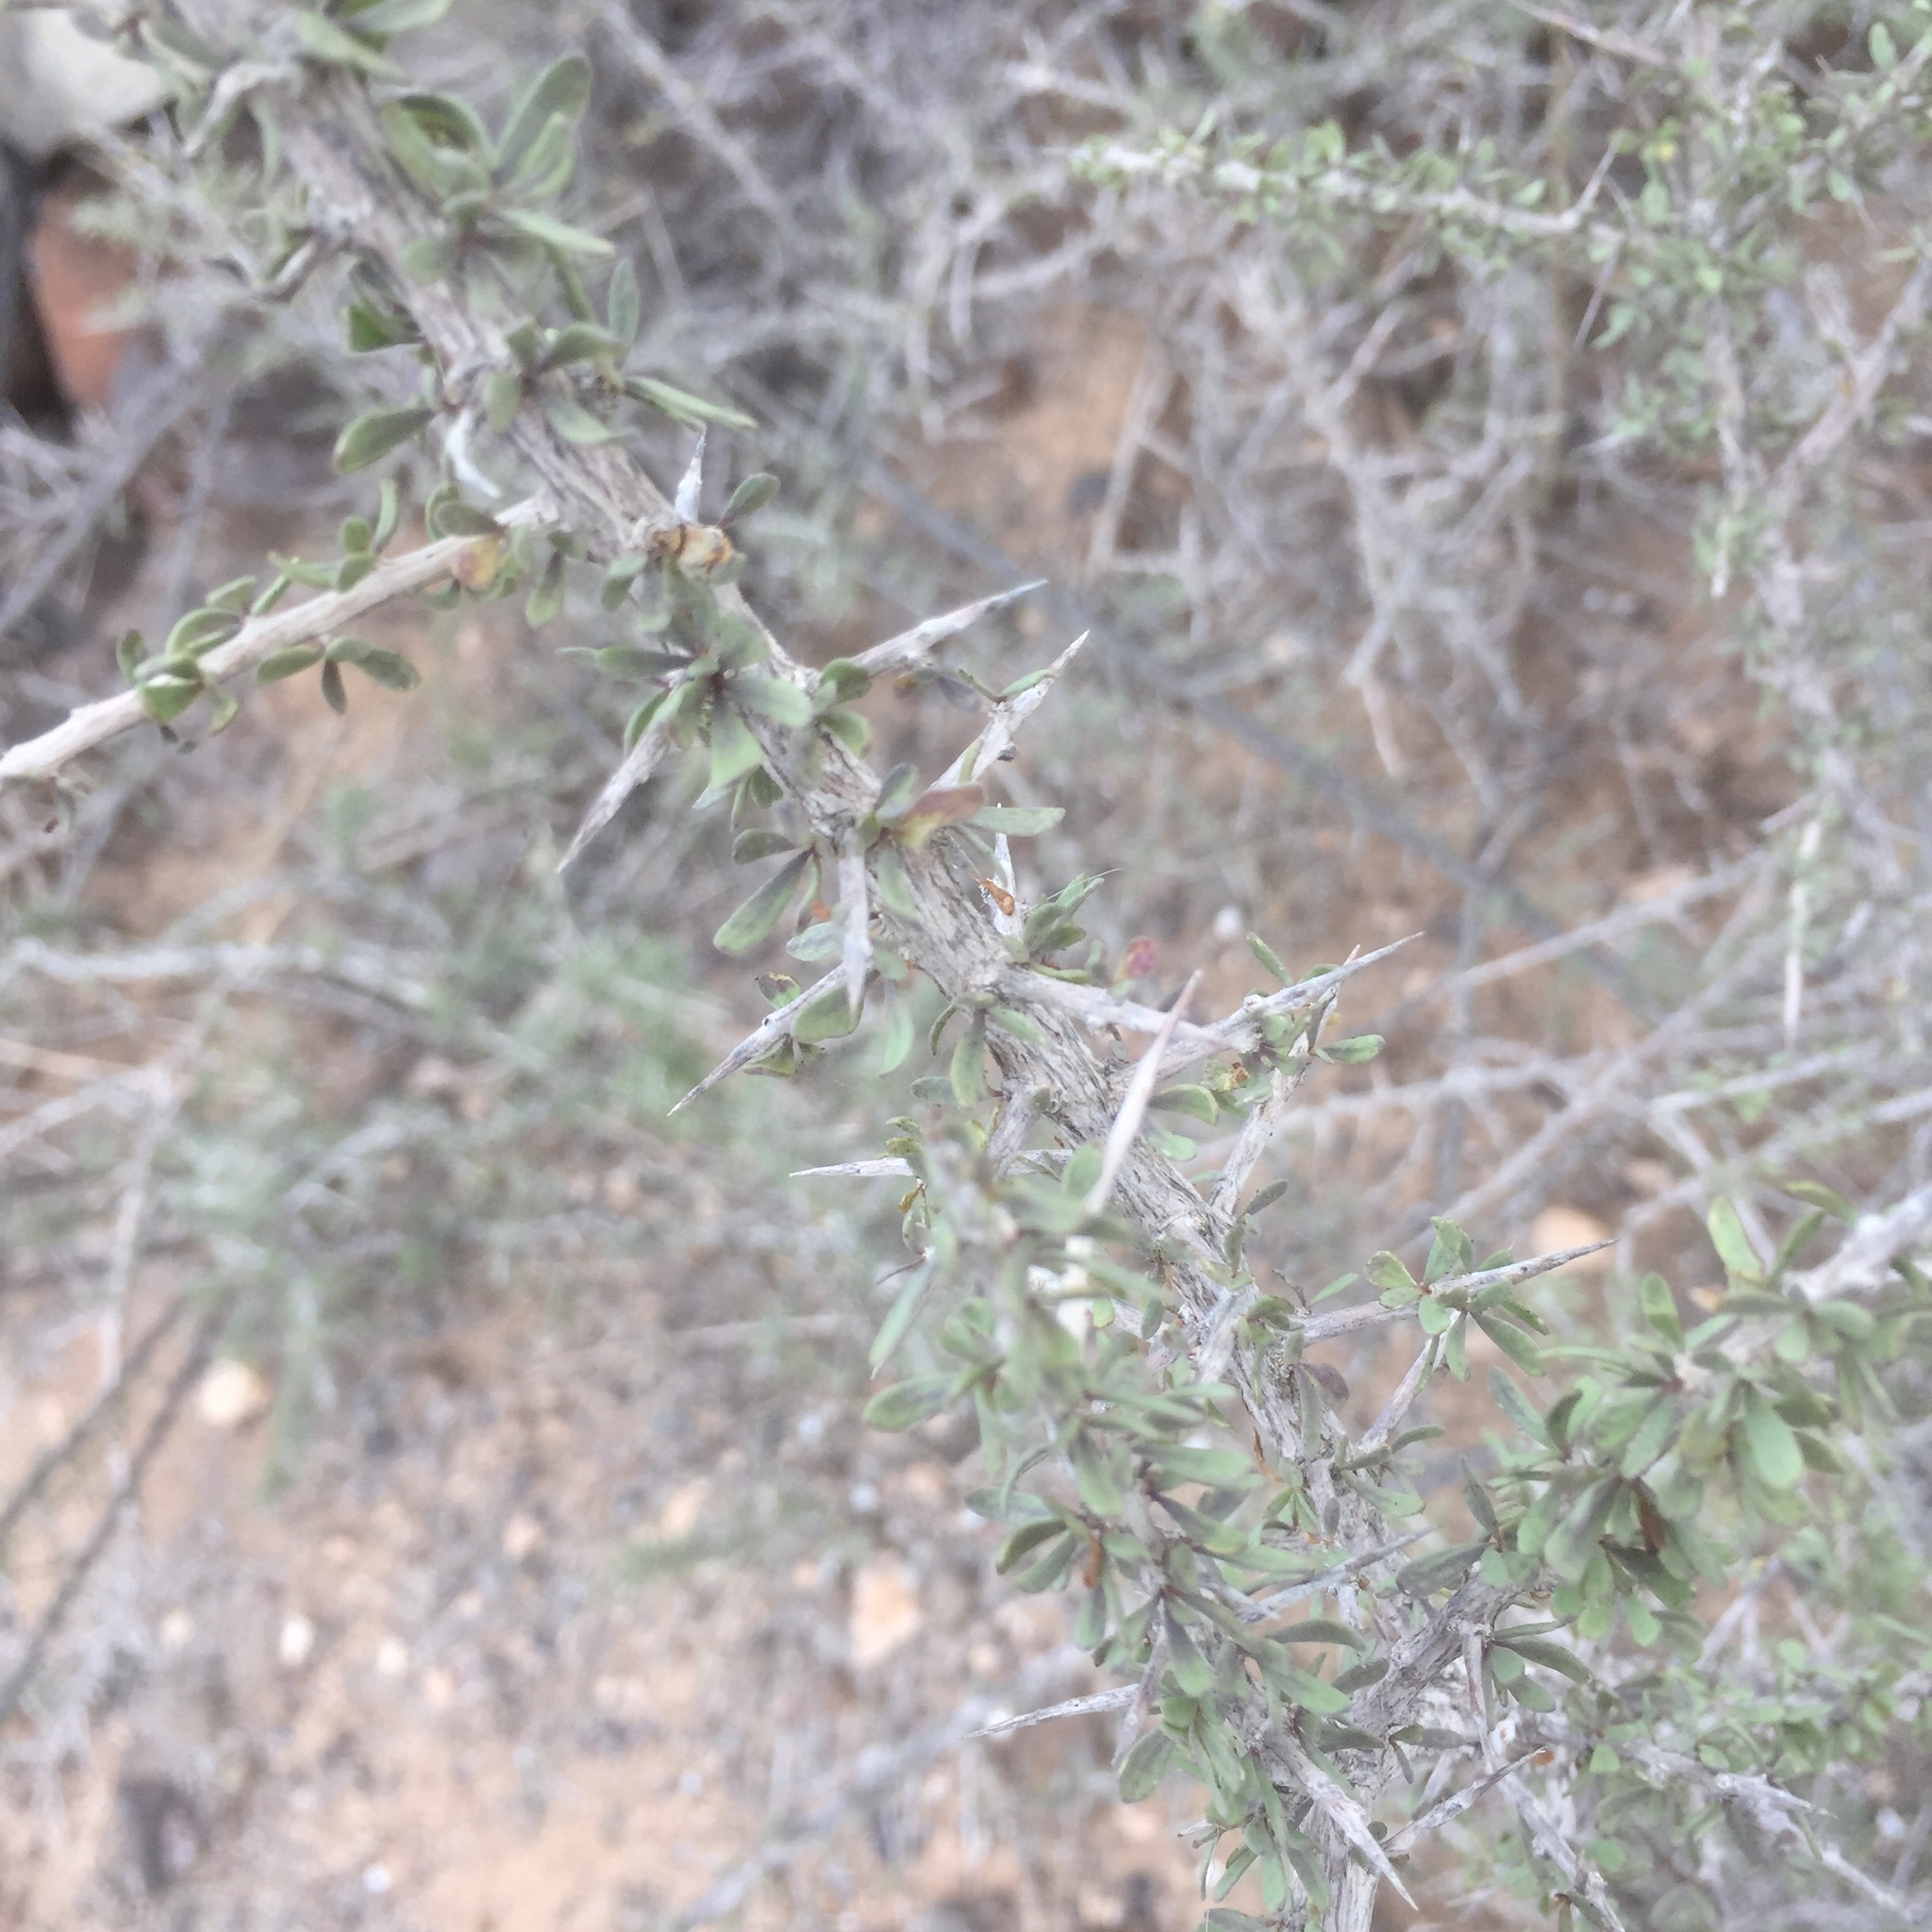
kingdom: Plantae
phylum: Tracheophyta
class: Magnoliopsida
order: Solanales
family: Solanaceae
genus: Lycium
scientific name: Lycium intricatum
